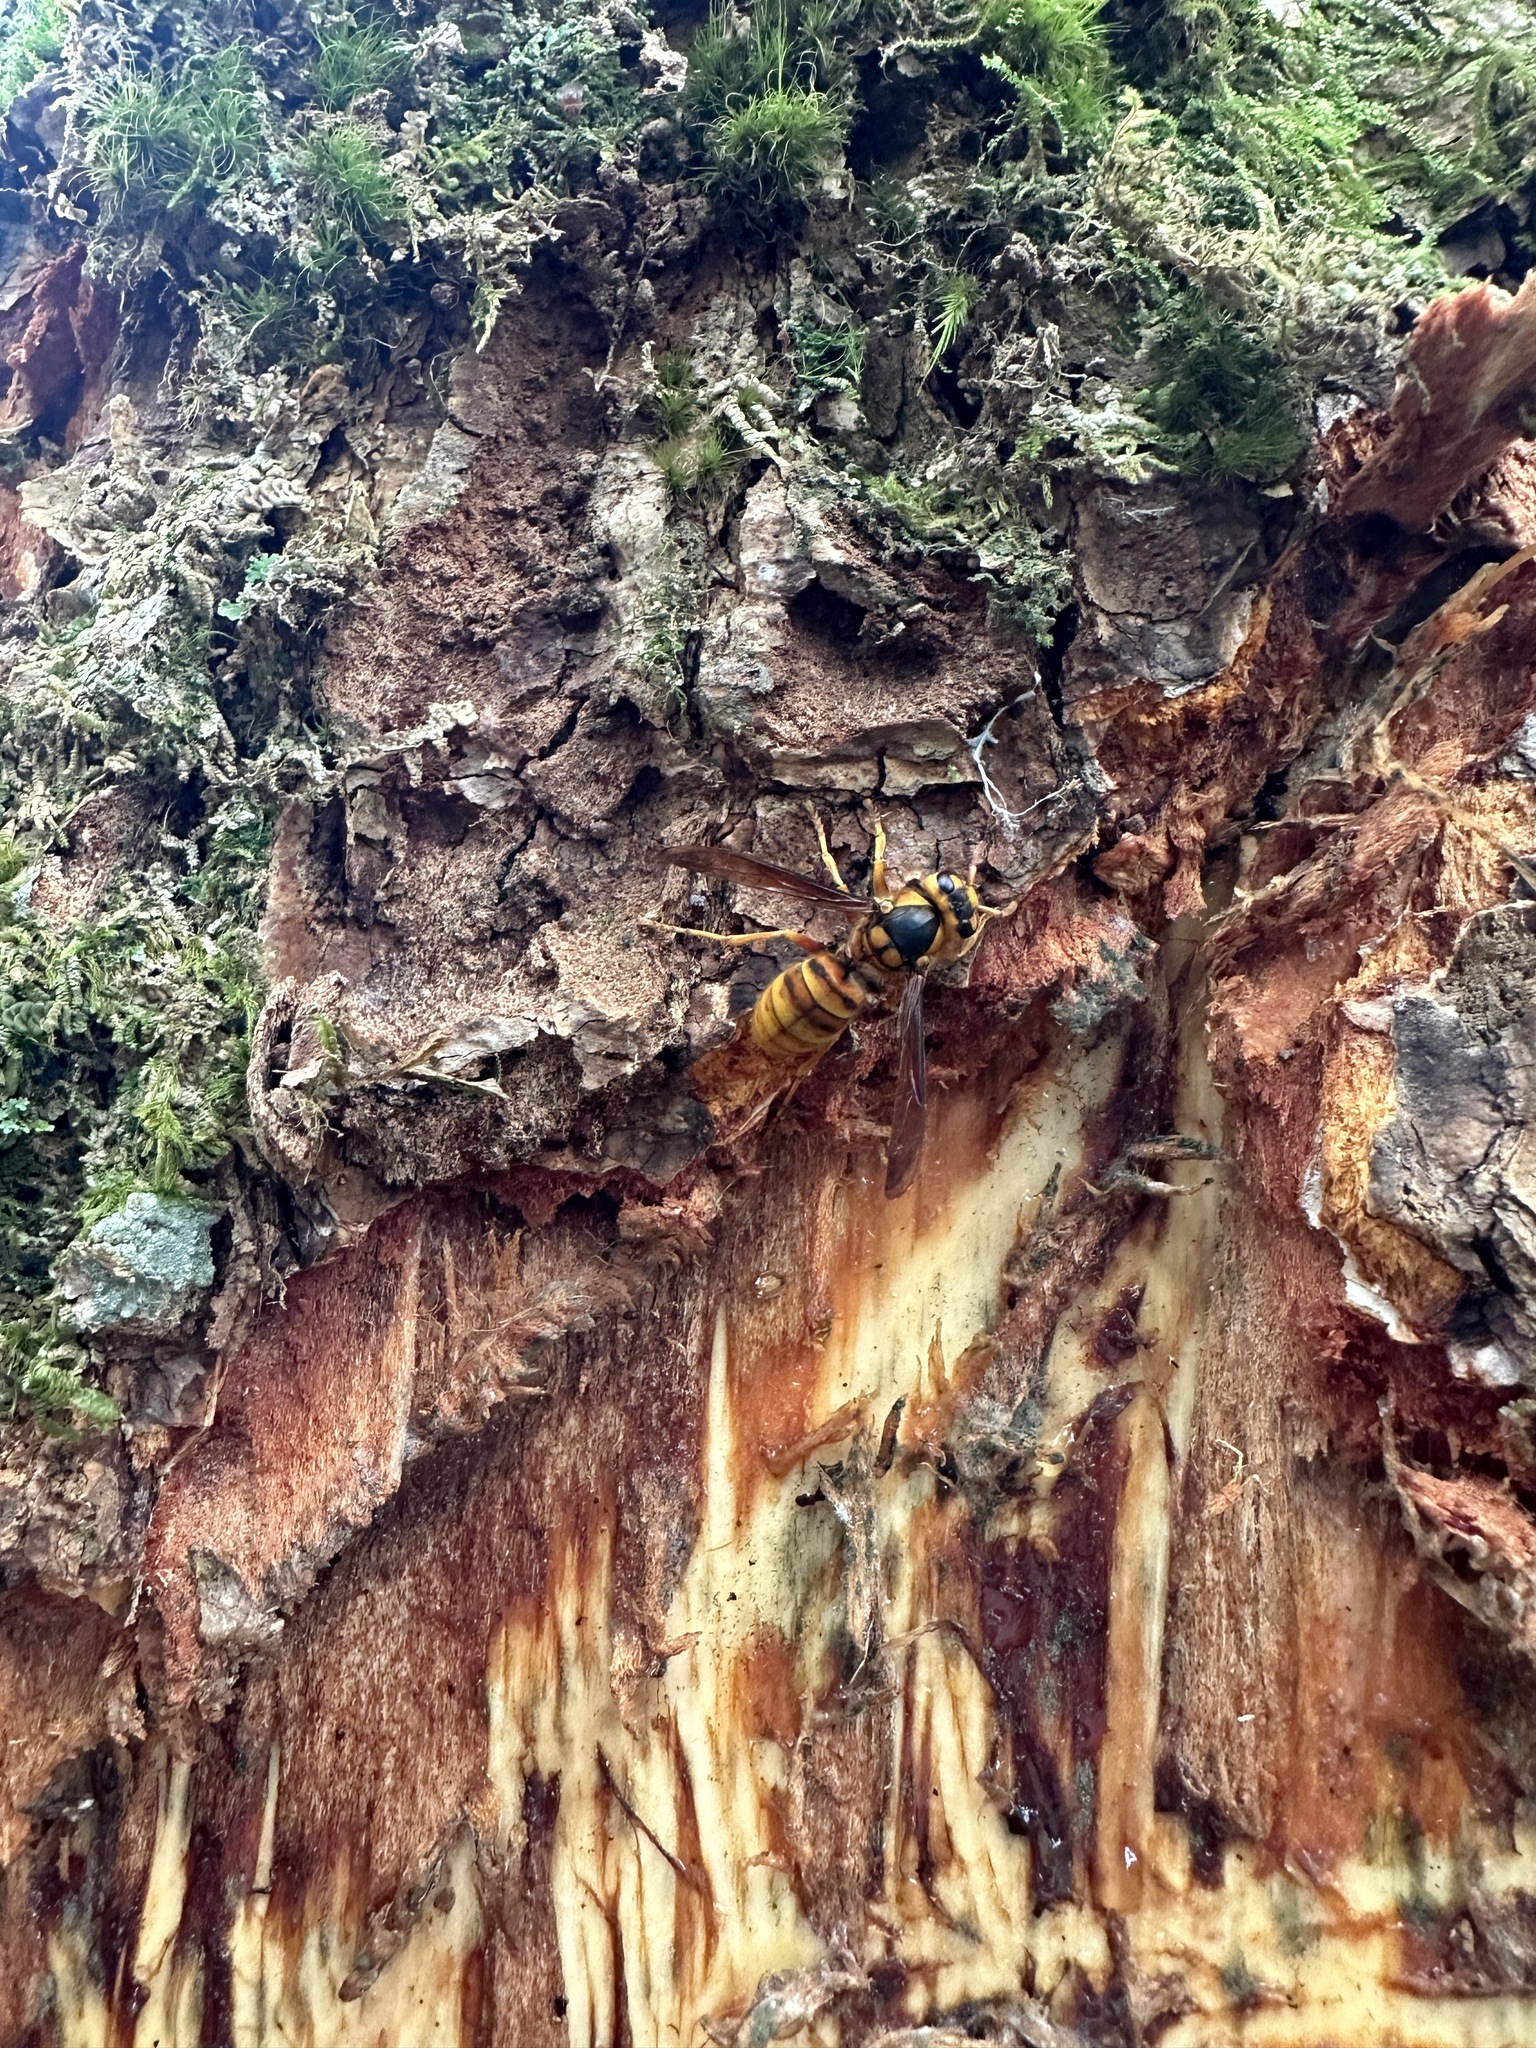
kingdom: Animalia
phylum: Arthropoda
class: Insecta
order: Hymenoptera
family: Vespidae
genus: Vespa
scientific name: Vespa simillima
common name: Vespid wasp
